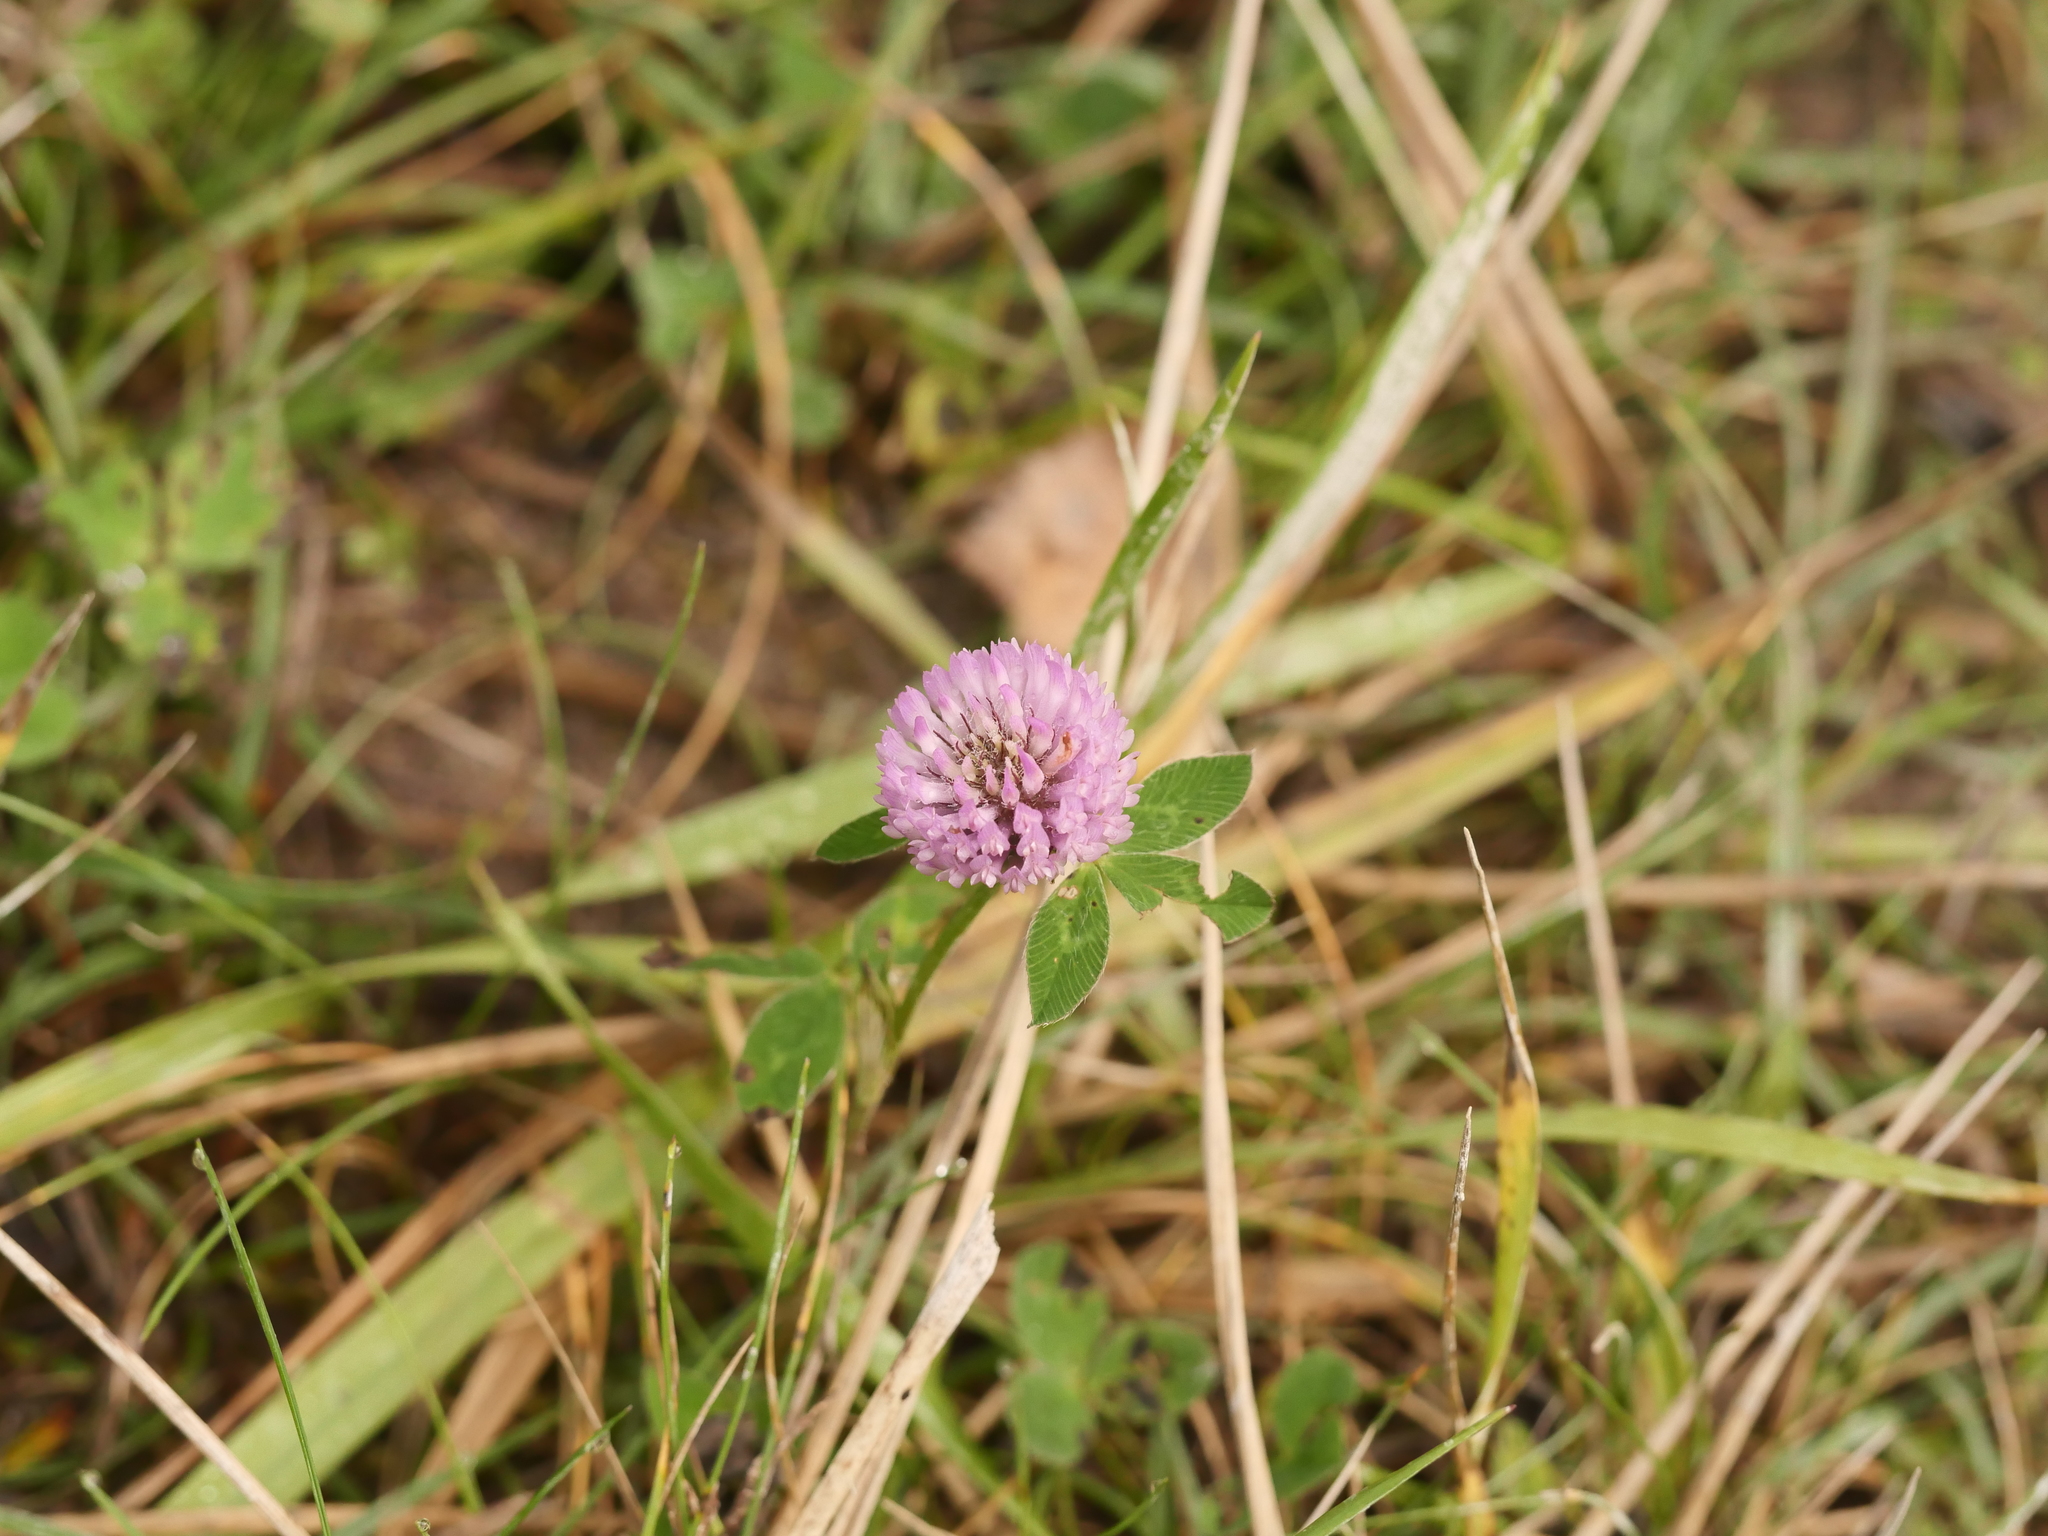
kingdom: Plantae
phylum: Tracheophyta
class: Magnoliopsida
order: Fabales
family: Fabaceae
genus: Trifolium
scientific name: Trifolium pratense
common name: Red clover
